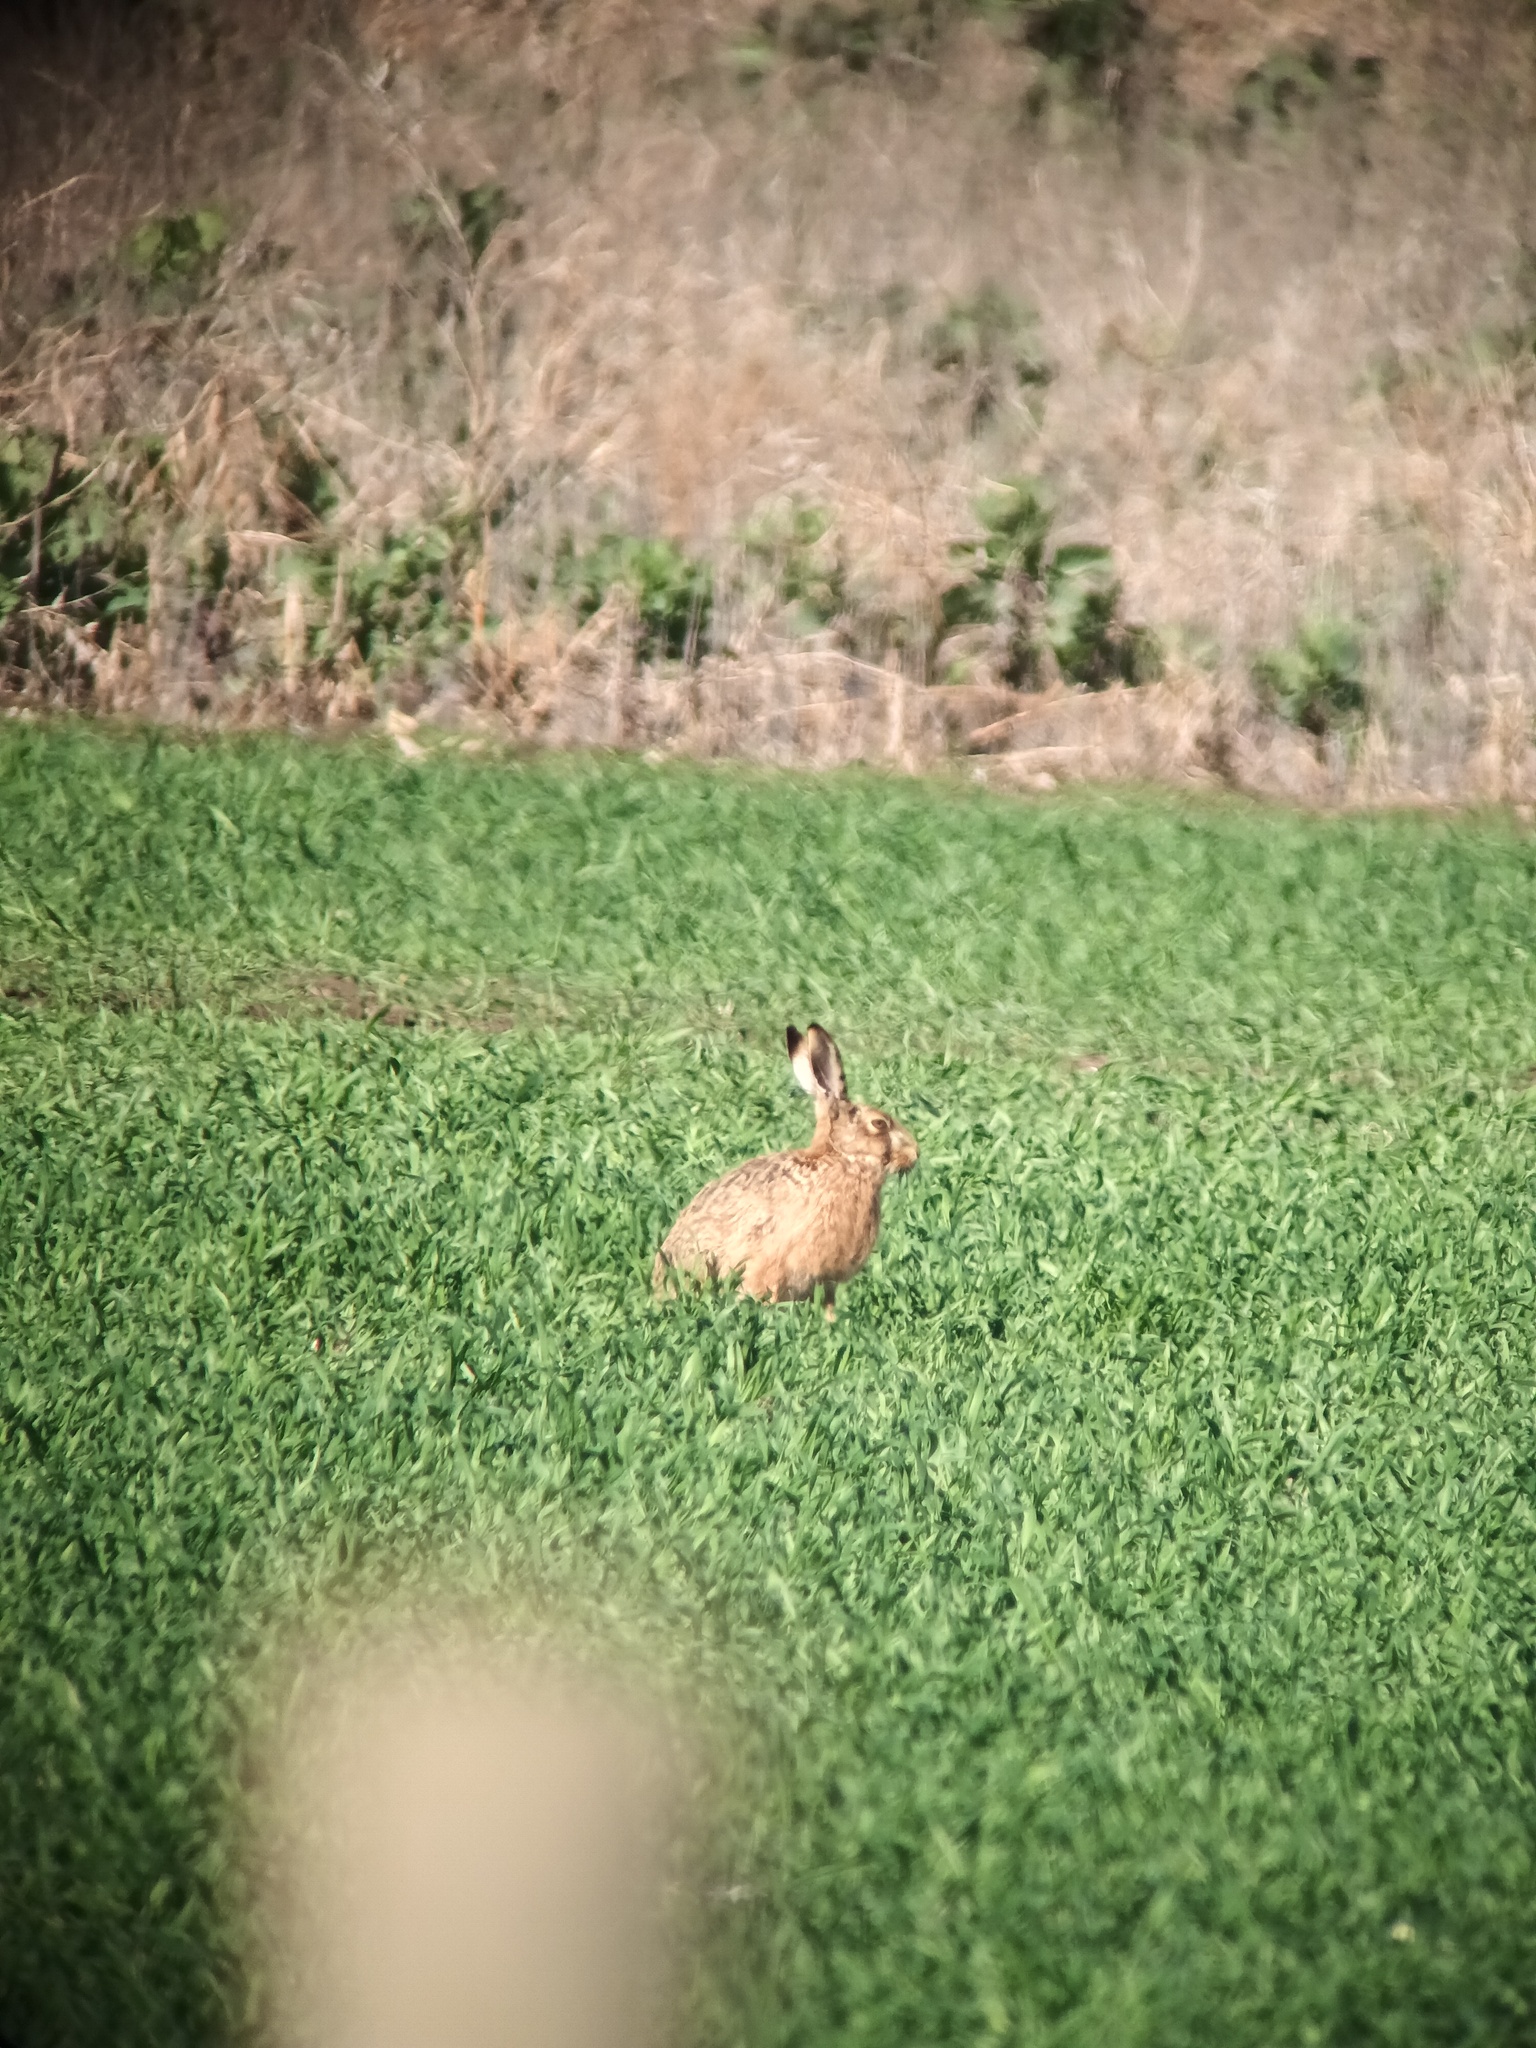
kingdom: Animalia
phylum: Chordata
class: Mammalia
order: Lagomorpha
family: Leporidae
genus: Lepus
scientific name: Lepus europaeus
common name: European hare
